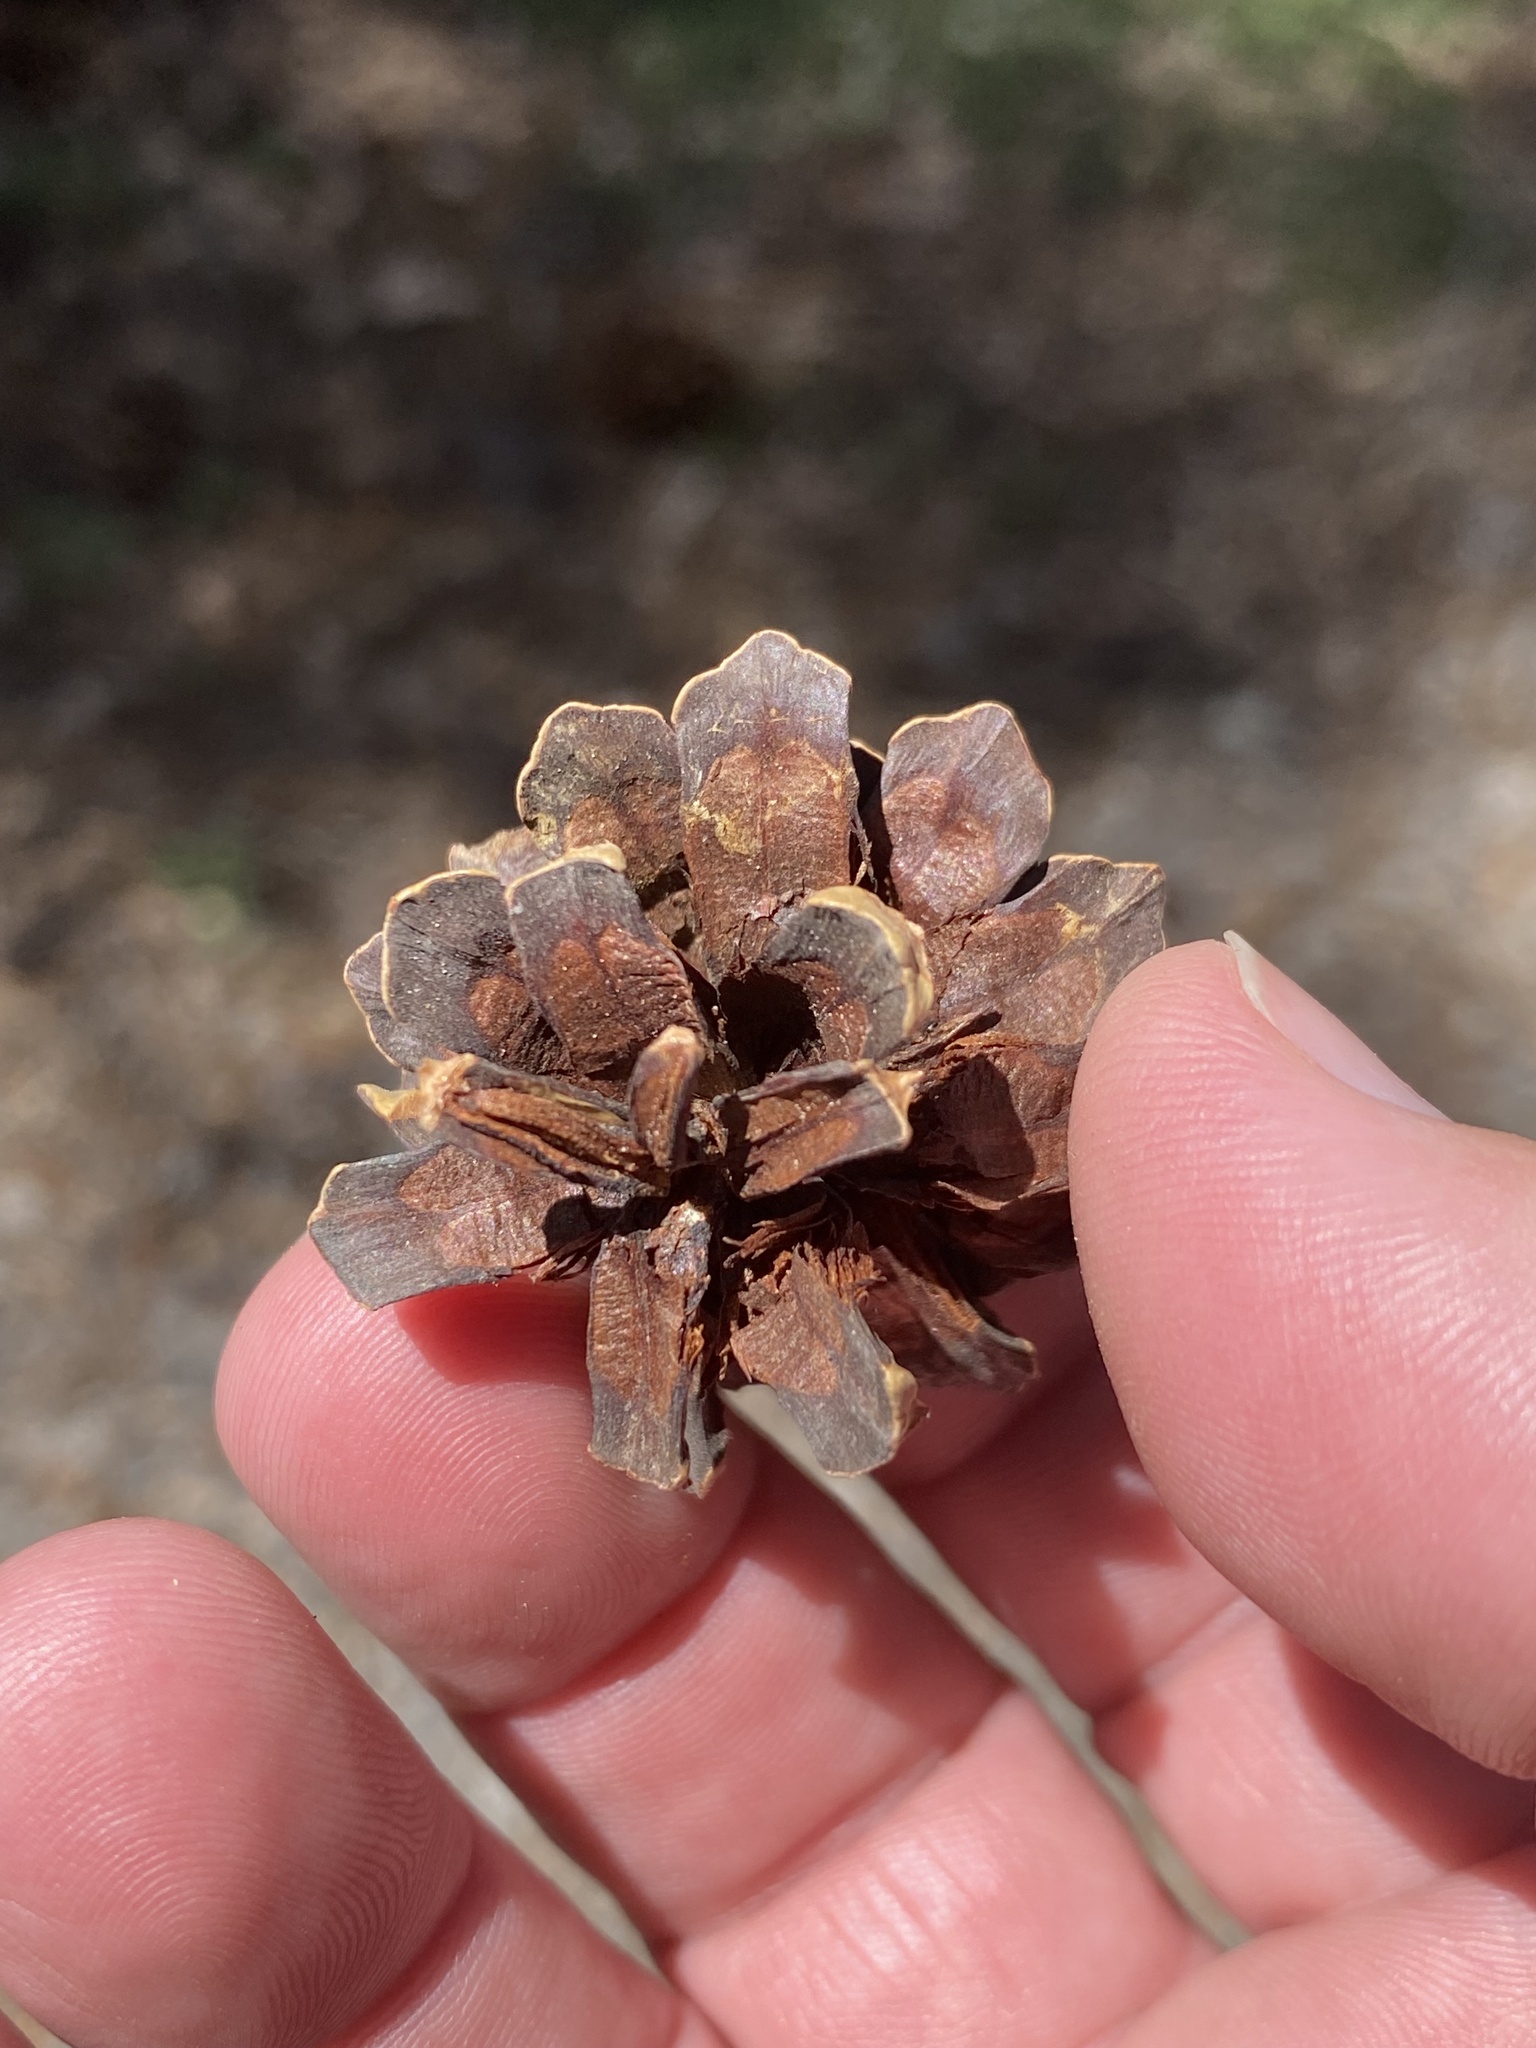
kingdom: Plantae
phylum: Tracheophyta
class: Pinopsida
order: Pinales
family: Pinaceae
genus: Pinus
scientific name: Pinus contorta
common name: Lodgepole pine
